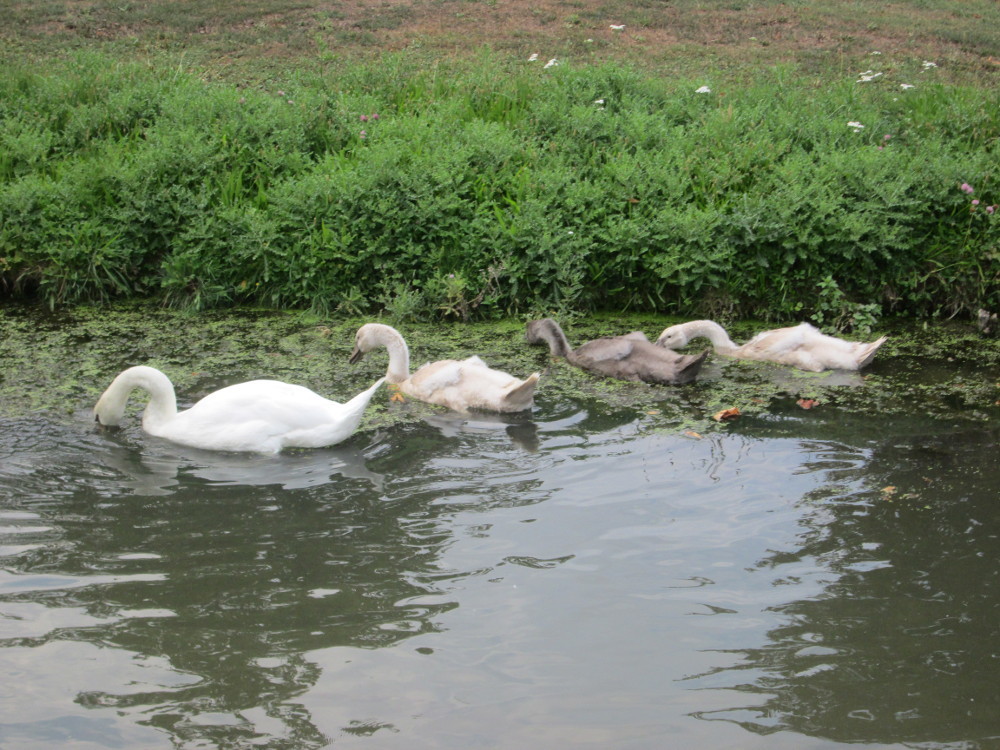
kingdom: Animalia
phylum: Chordata
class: Aves
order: Anseriformes
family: Anatidae
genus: Cygnus
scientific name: Cygnus olor
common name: Mute swan
